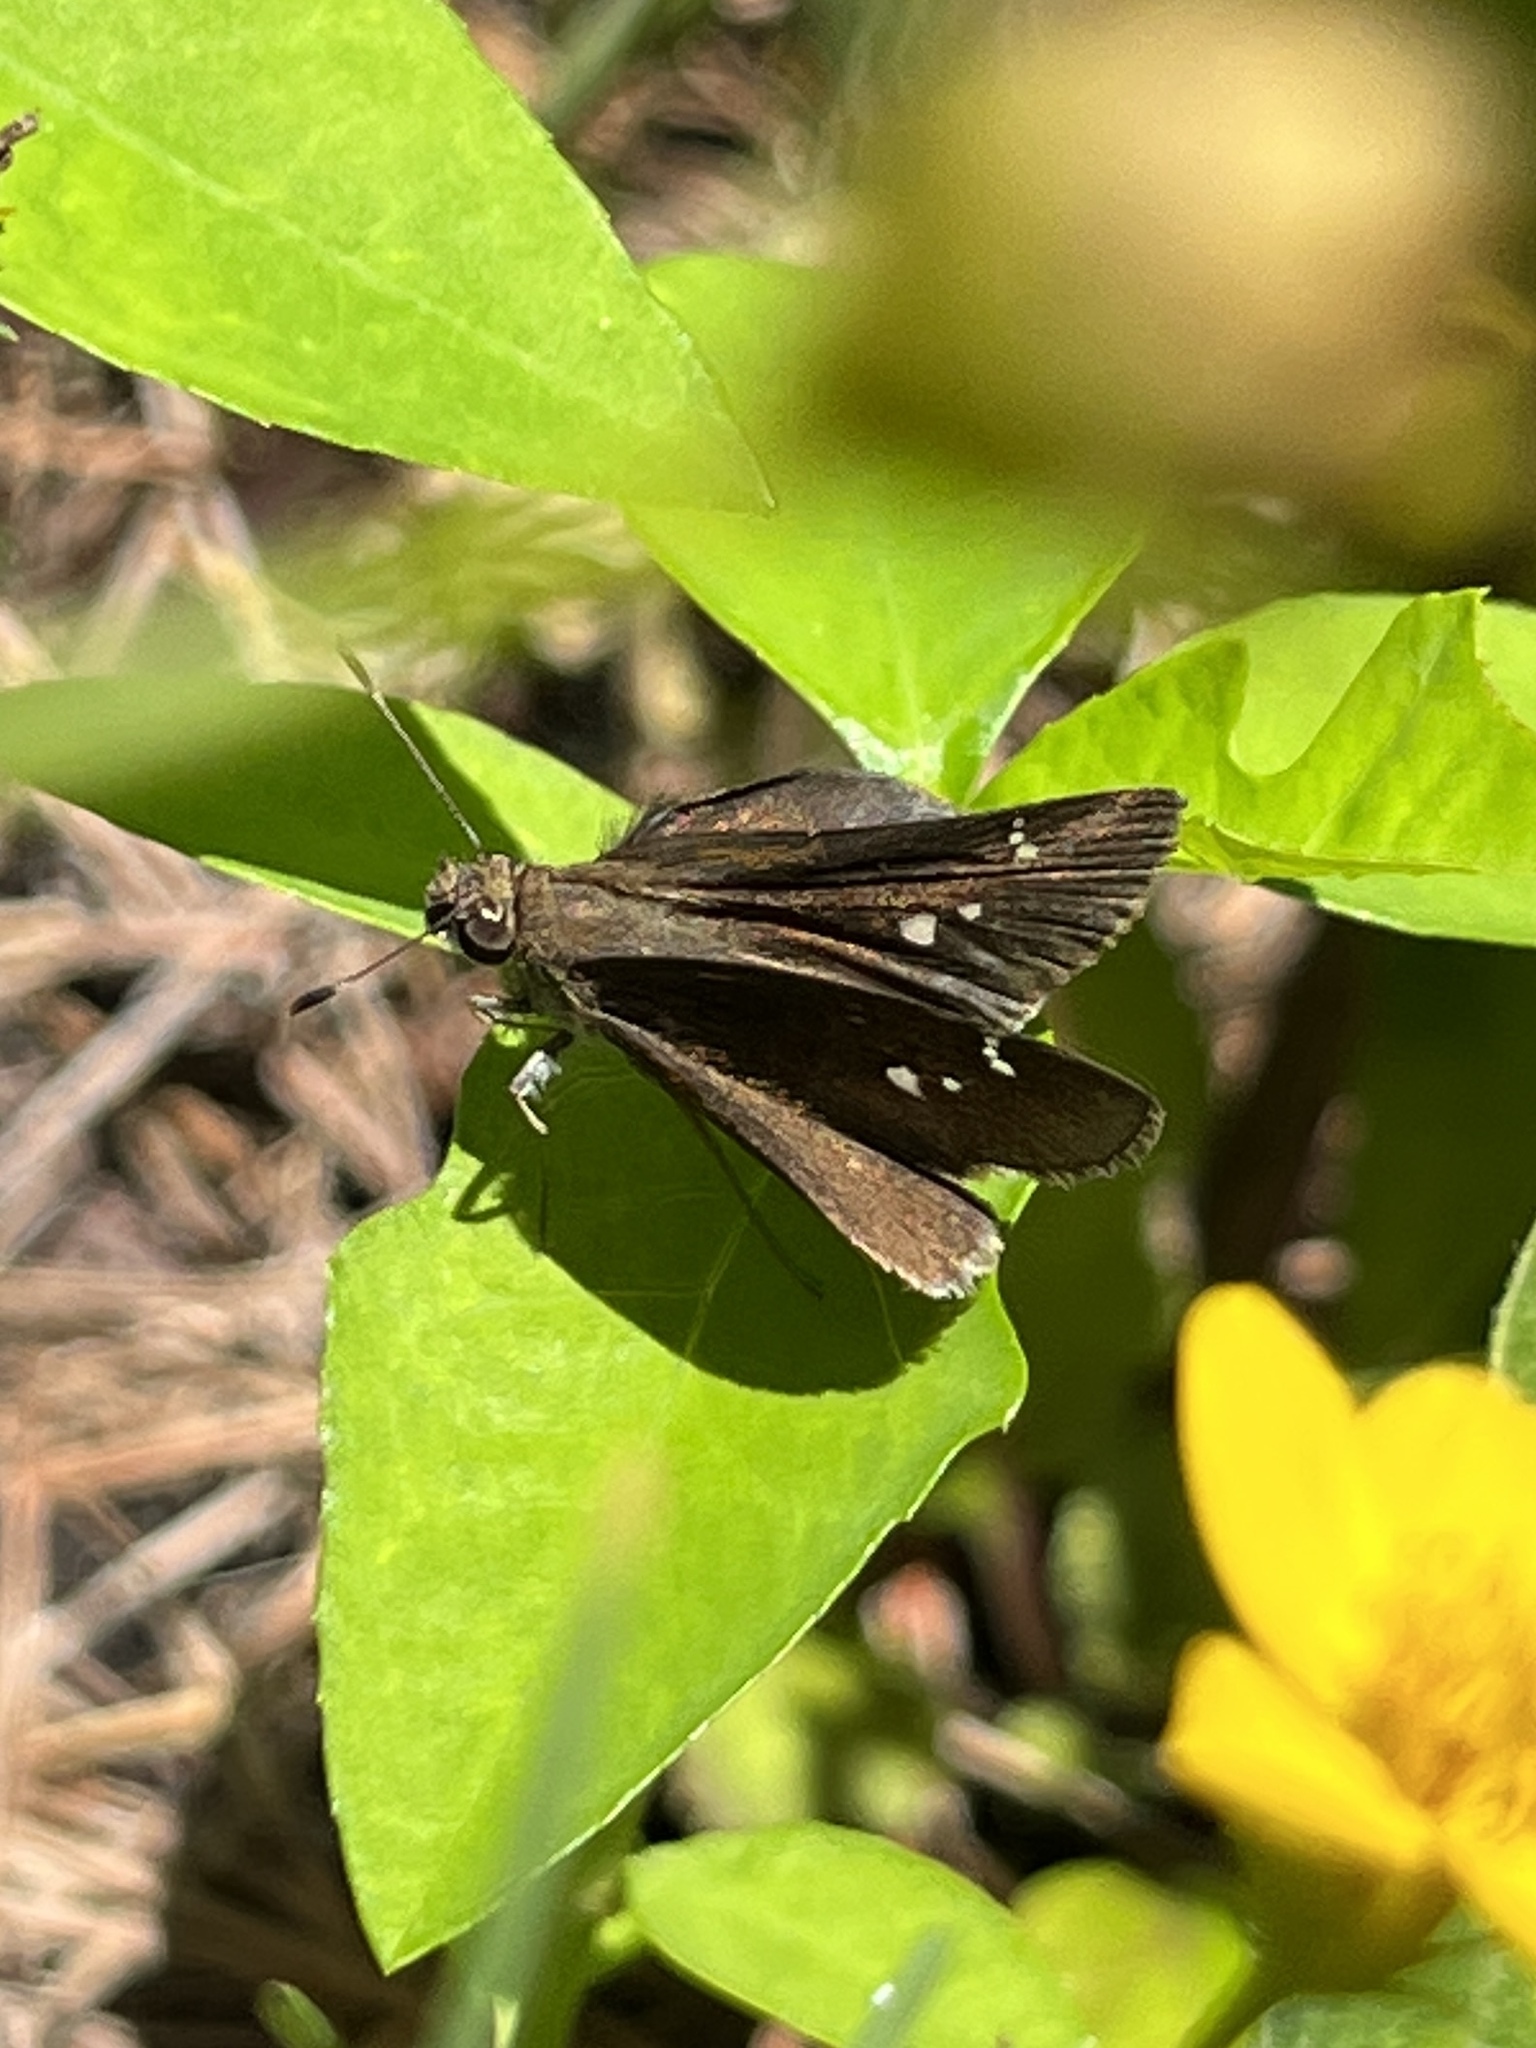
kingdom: Animalia
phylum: Arthropoda
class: Insecta
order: Lepidoptera
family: Hesperiidae
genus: Lerema
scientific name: Lerema accius
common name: Clouded skipper
